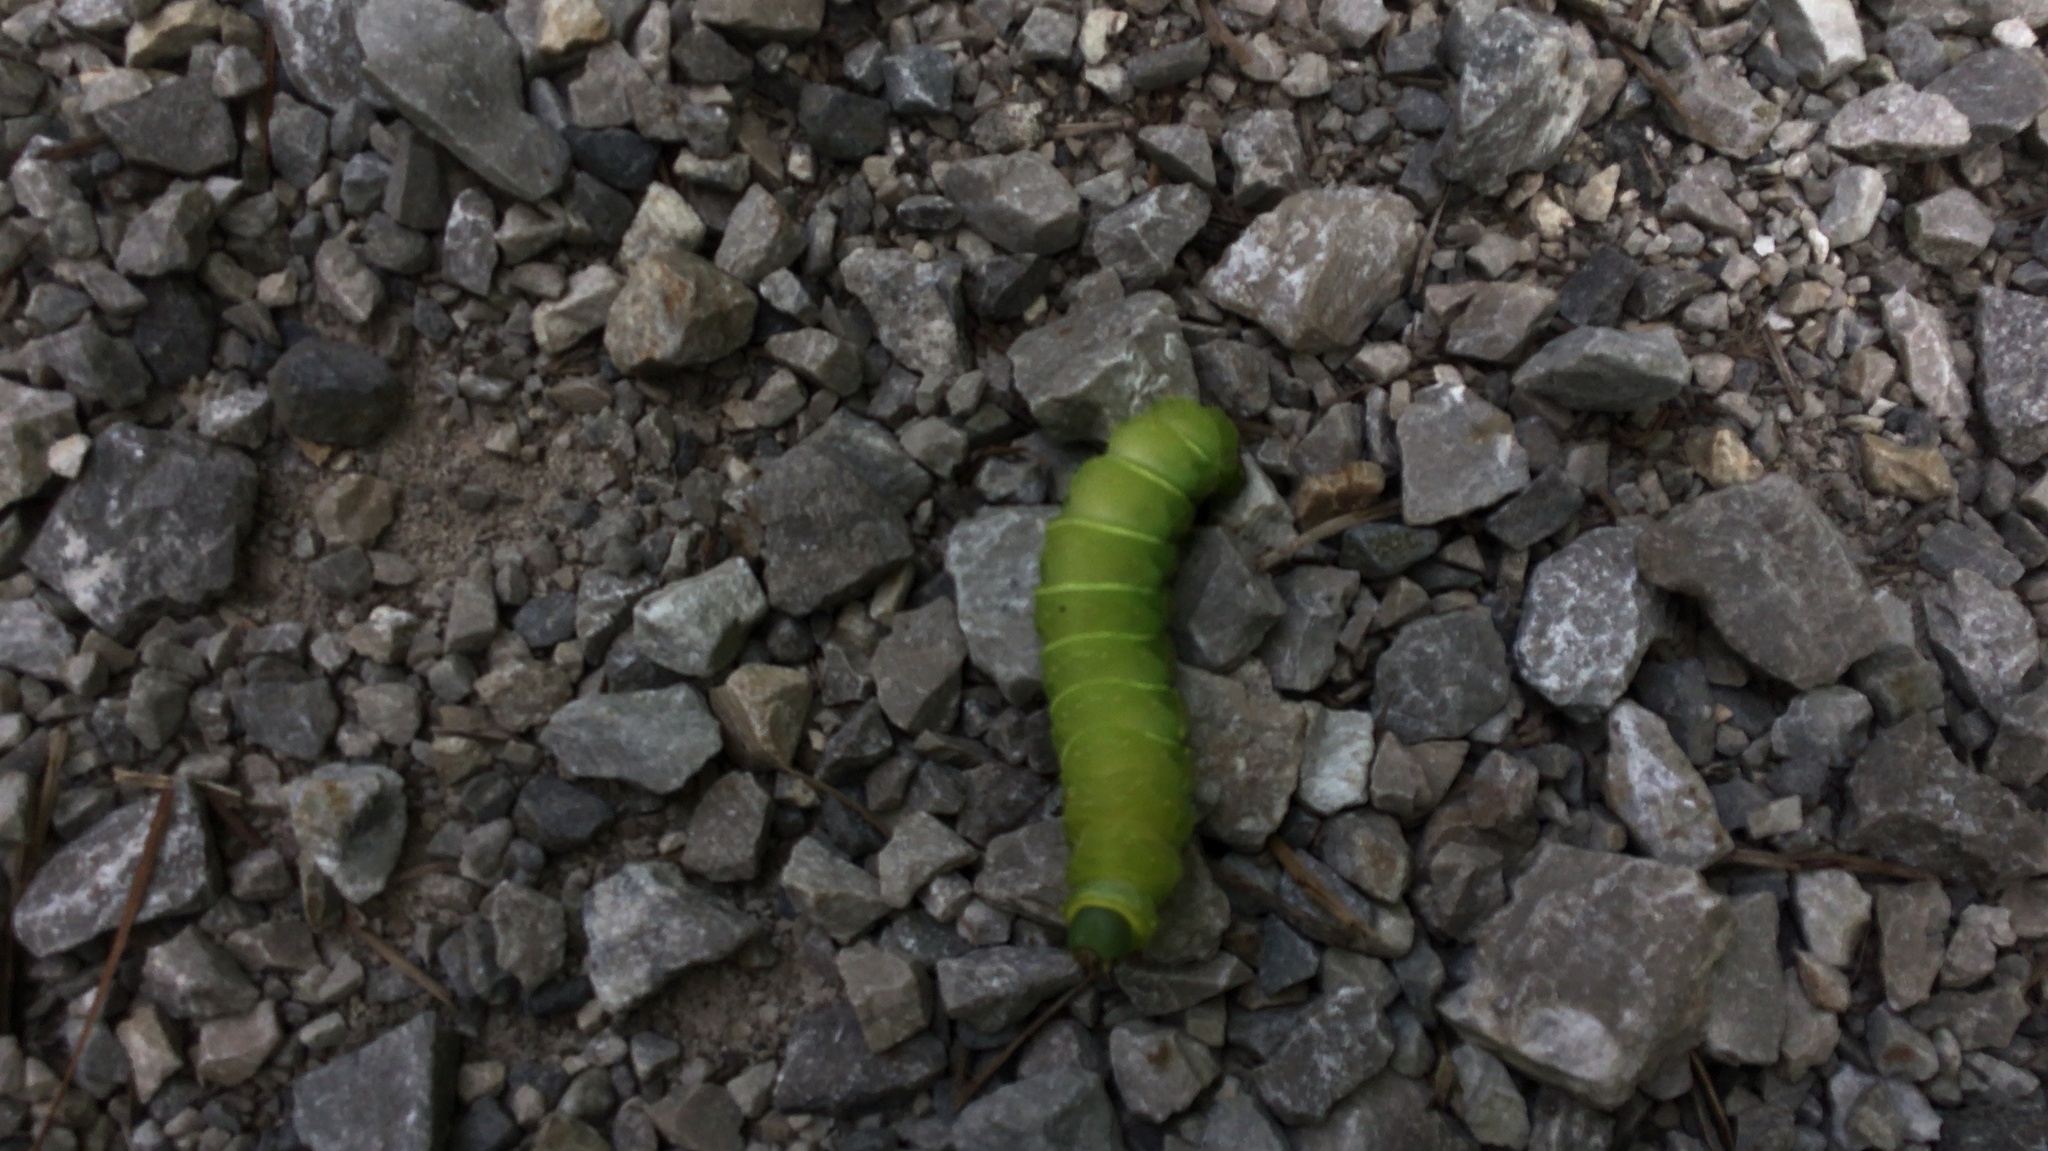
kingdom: Animalia
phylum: Arthropoda
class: Insecta
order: Lepidoptera
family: Saturniidae
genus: Actias
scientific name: Actias luna
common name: Luna moth
